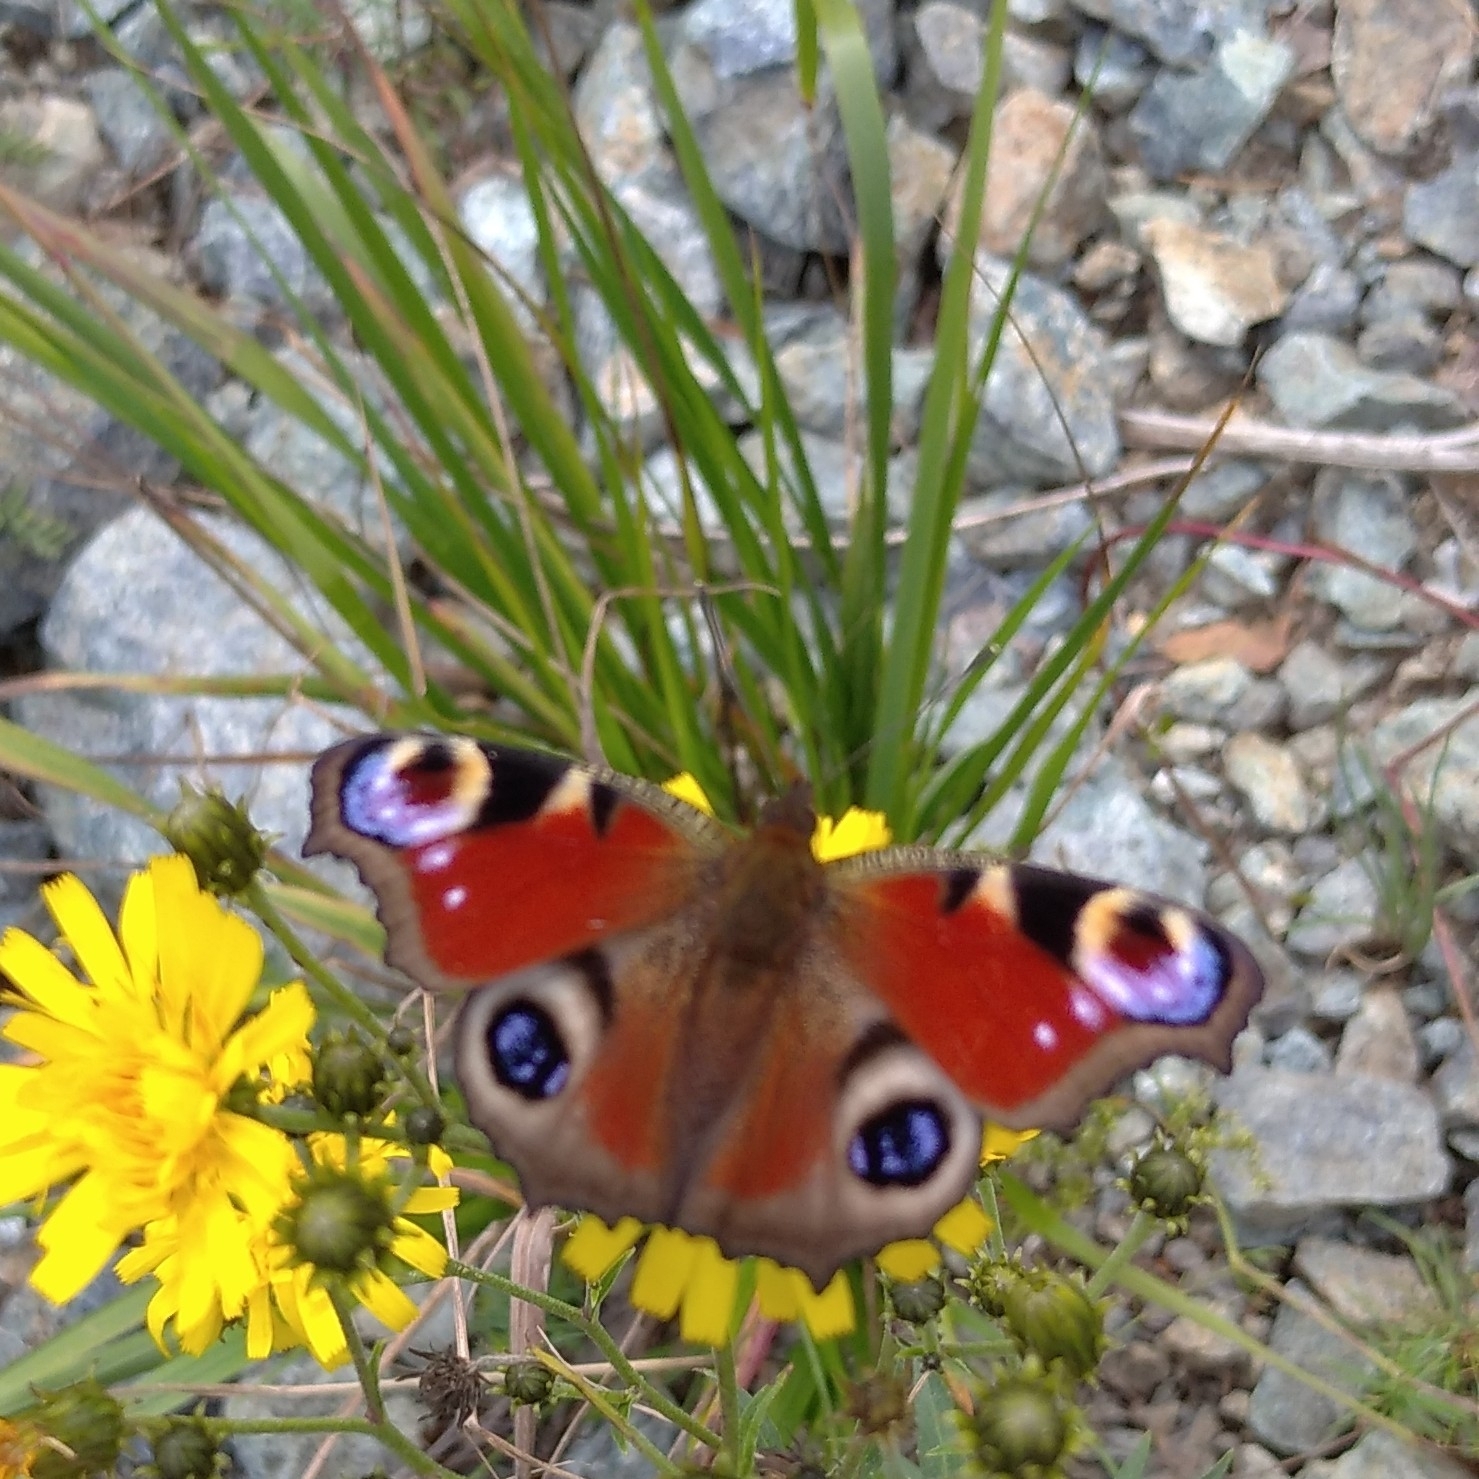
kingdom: Animalia
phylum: Arthropoda
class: Insecta
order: Lepidoptera
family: Nymphalidae
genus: Aglais
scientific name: Aglais io
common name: Peacock
